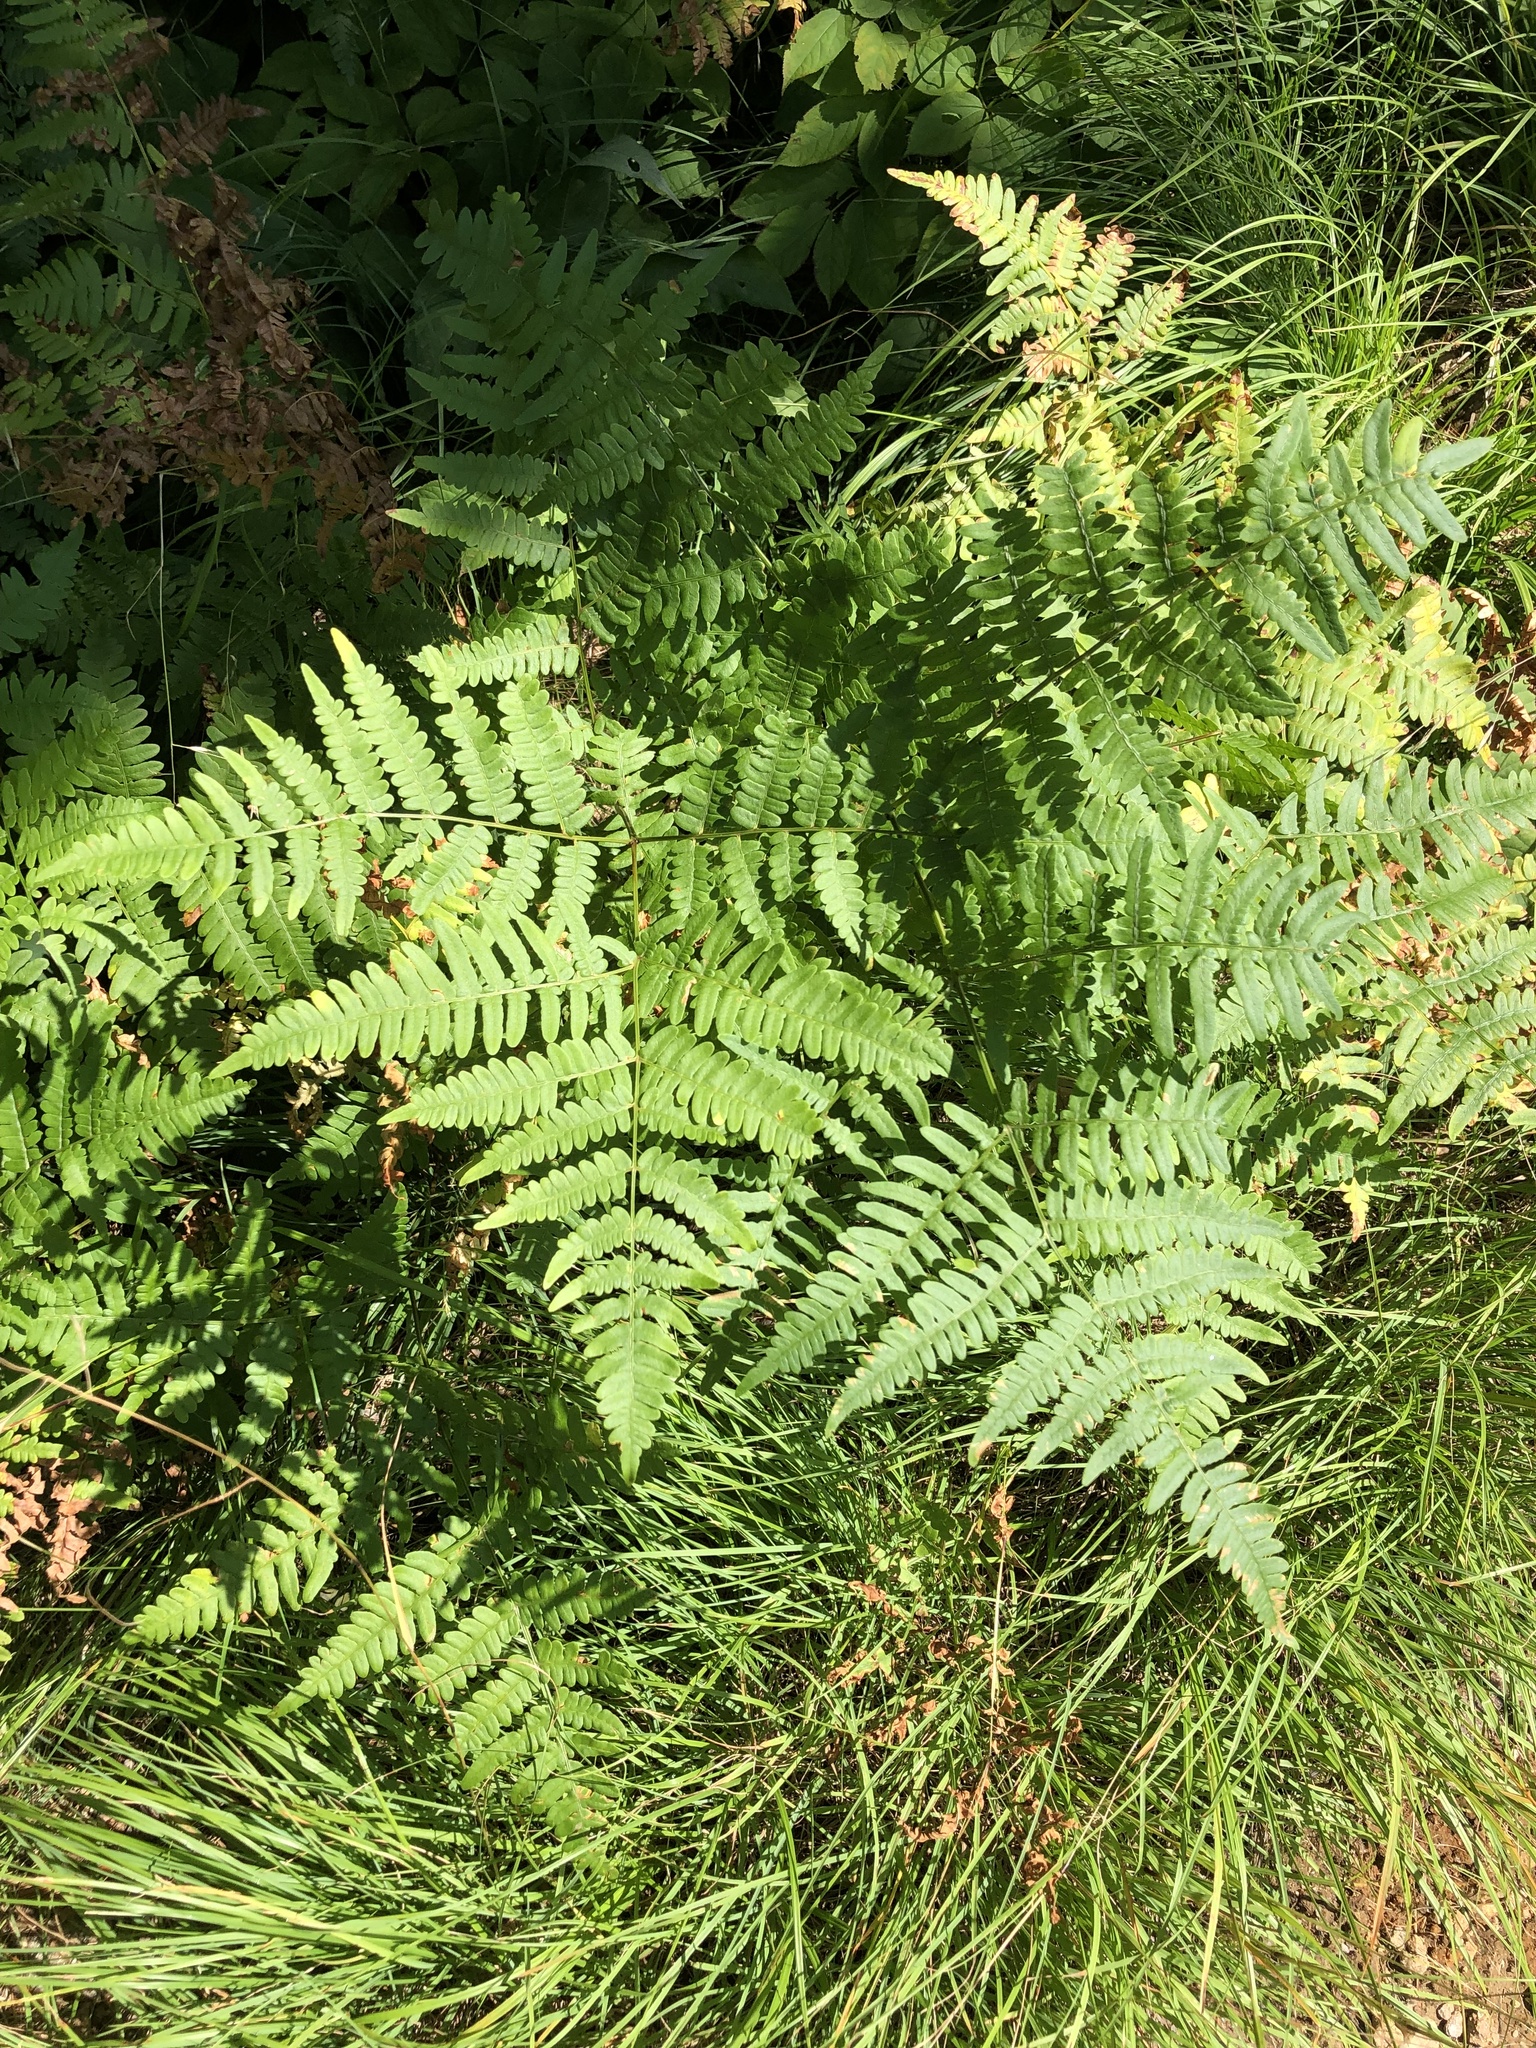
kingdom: Plantae
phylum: Tracheophyta
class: Polypodiopsida
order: Polypodiales
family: Dennstaedtiaceae
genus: Pteridium
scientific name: Pteridium aquilinum
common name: Bracken
